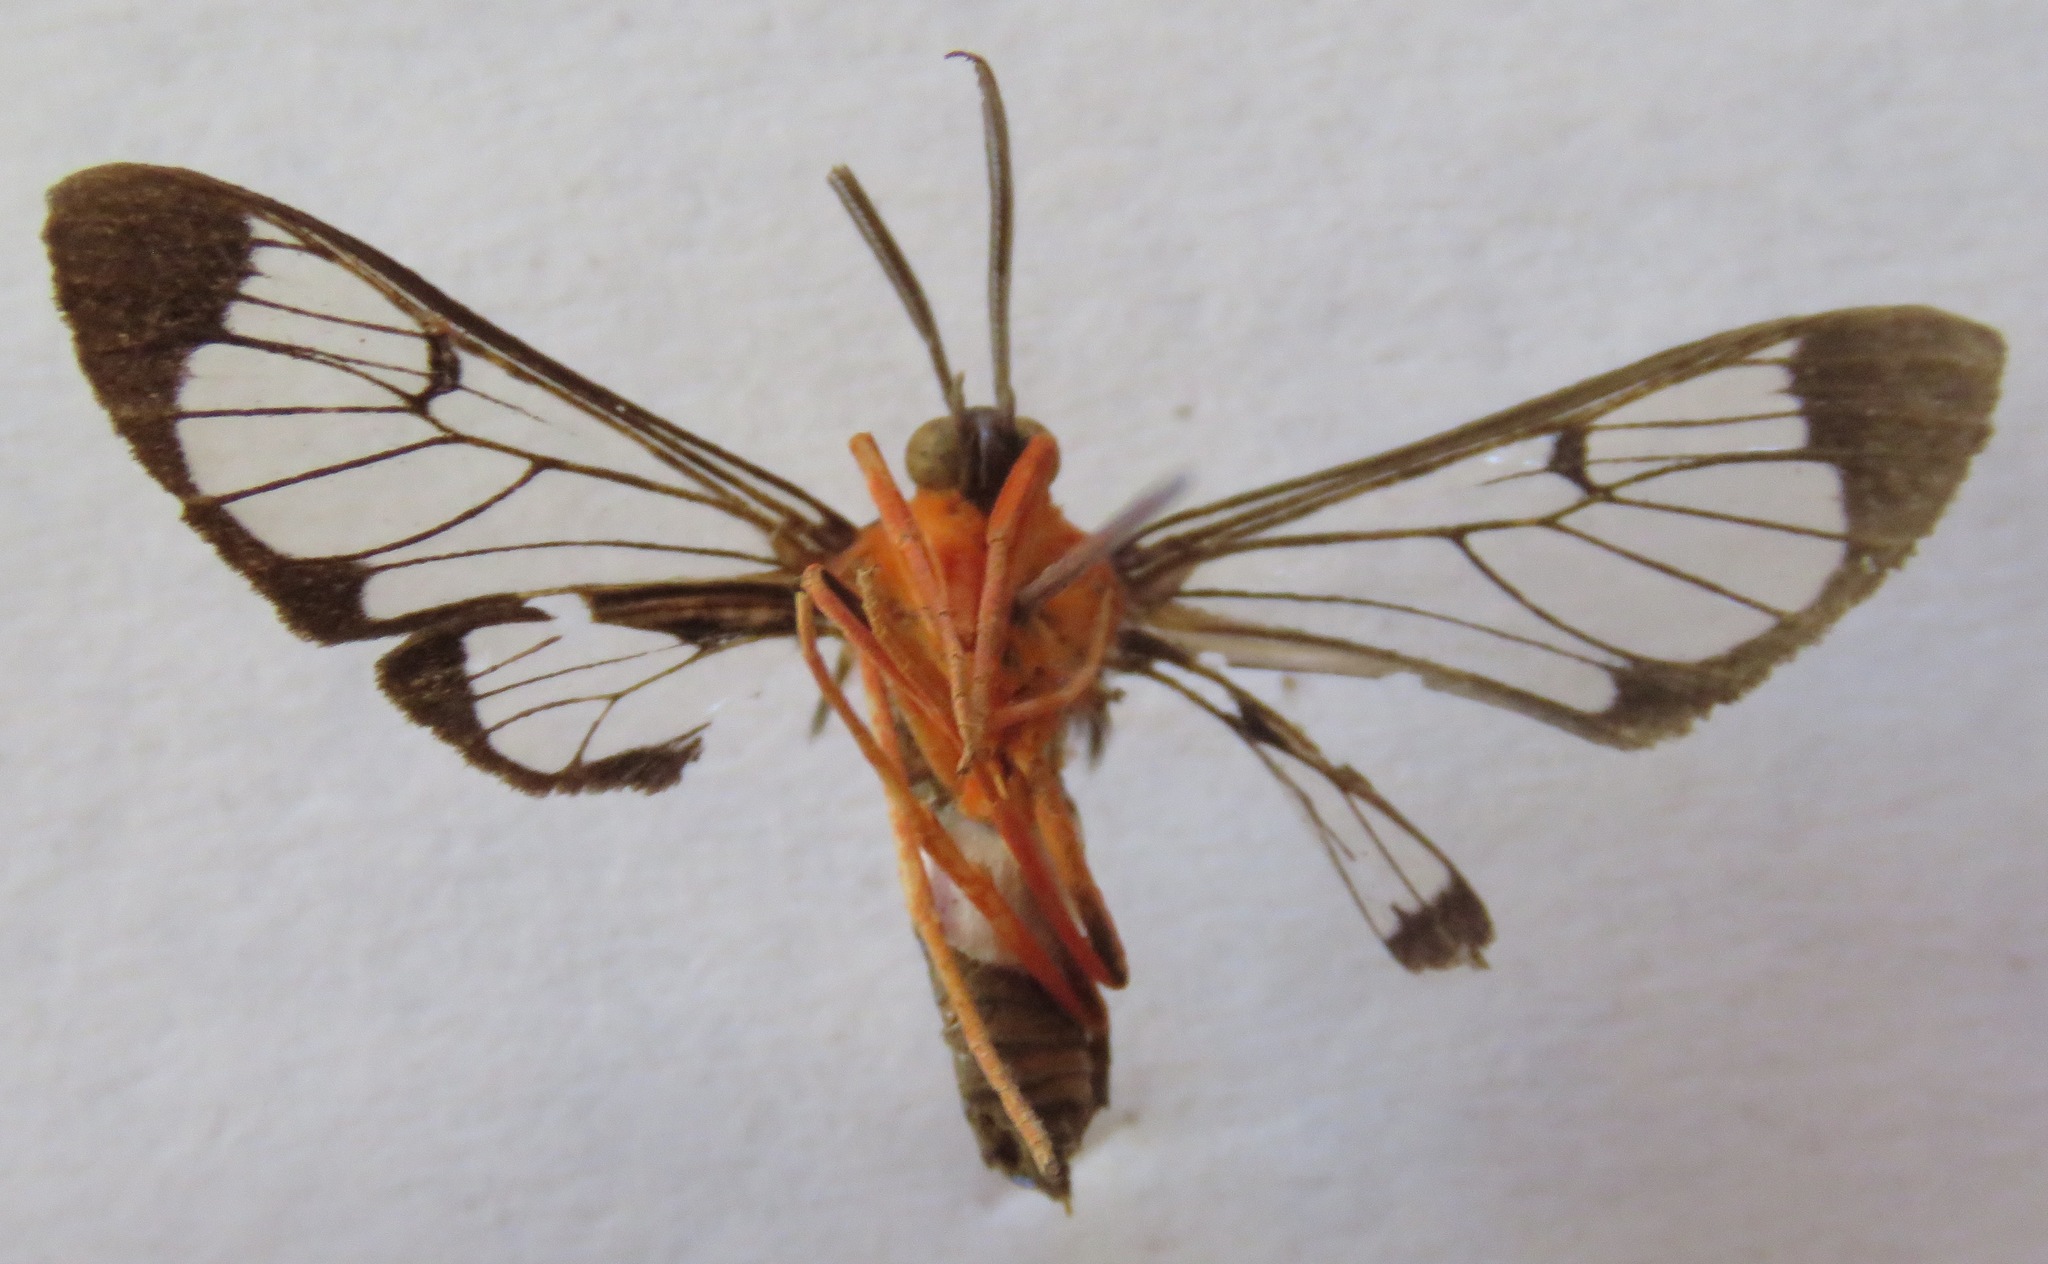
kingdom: Animalia
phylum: Arthropoda
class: Insecta
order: Lepidoptera
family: Erebidae
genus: Cosmosoma
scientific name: Cosmosoma sectinota
